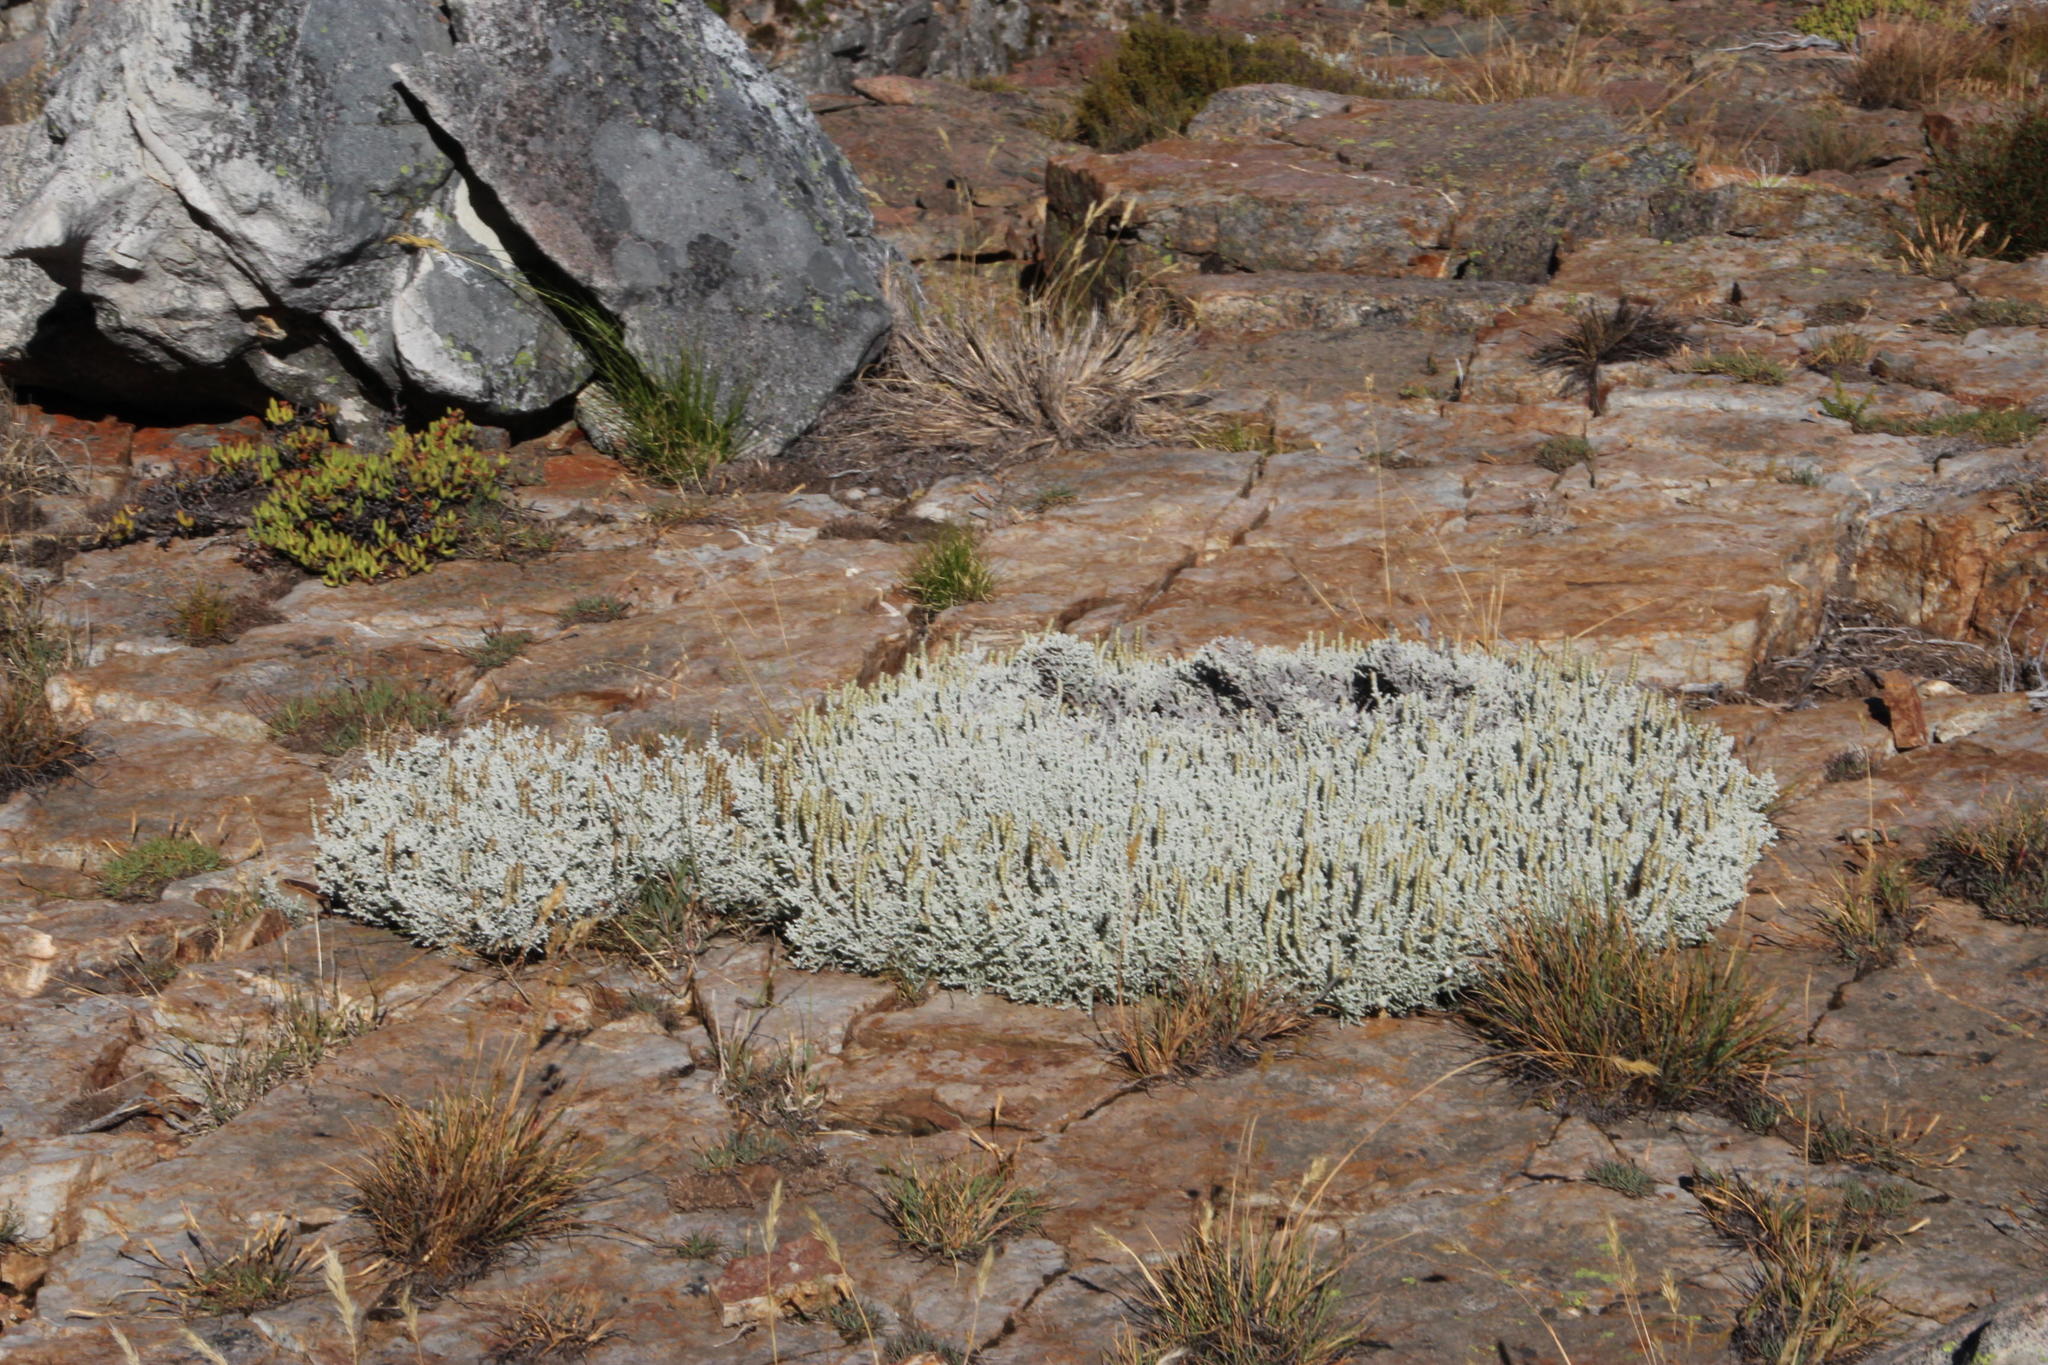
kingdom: Plantae
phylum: Tracheophyta
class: Magnoliopsida
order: Asterales
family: Asteraceae
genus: Seriphium
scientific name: Seriphium plumosum
